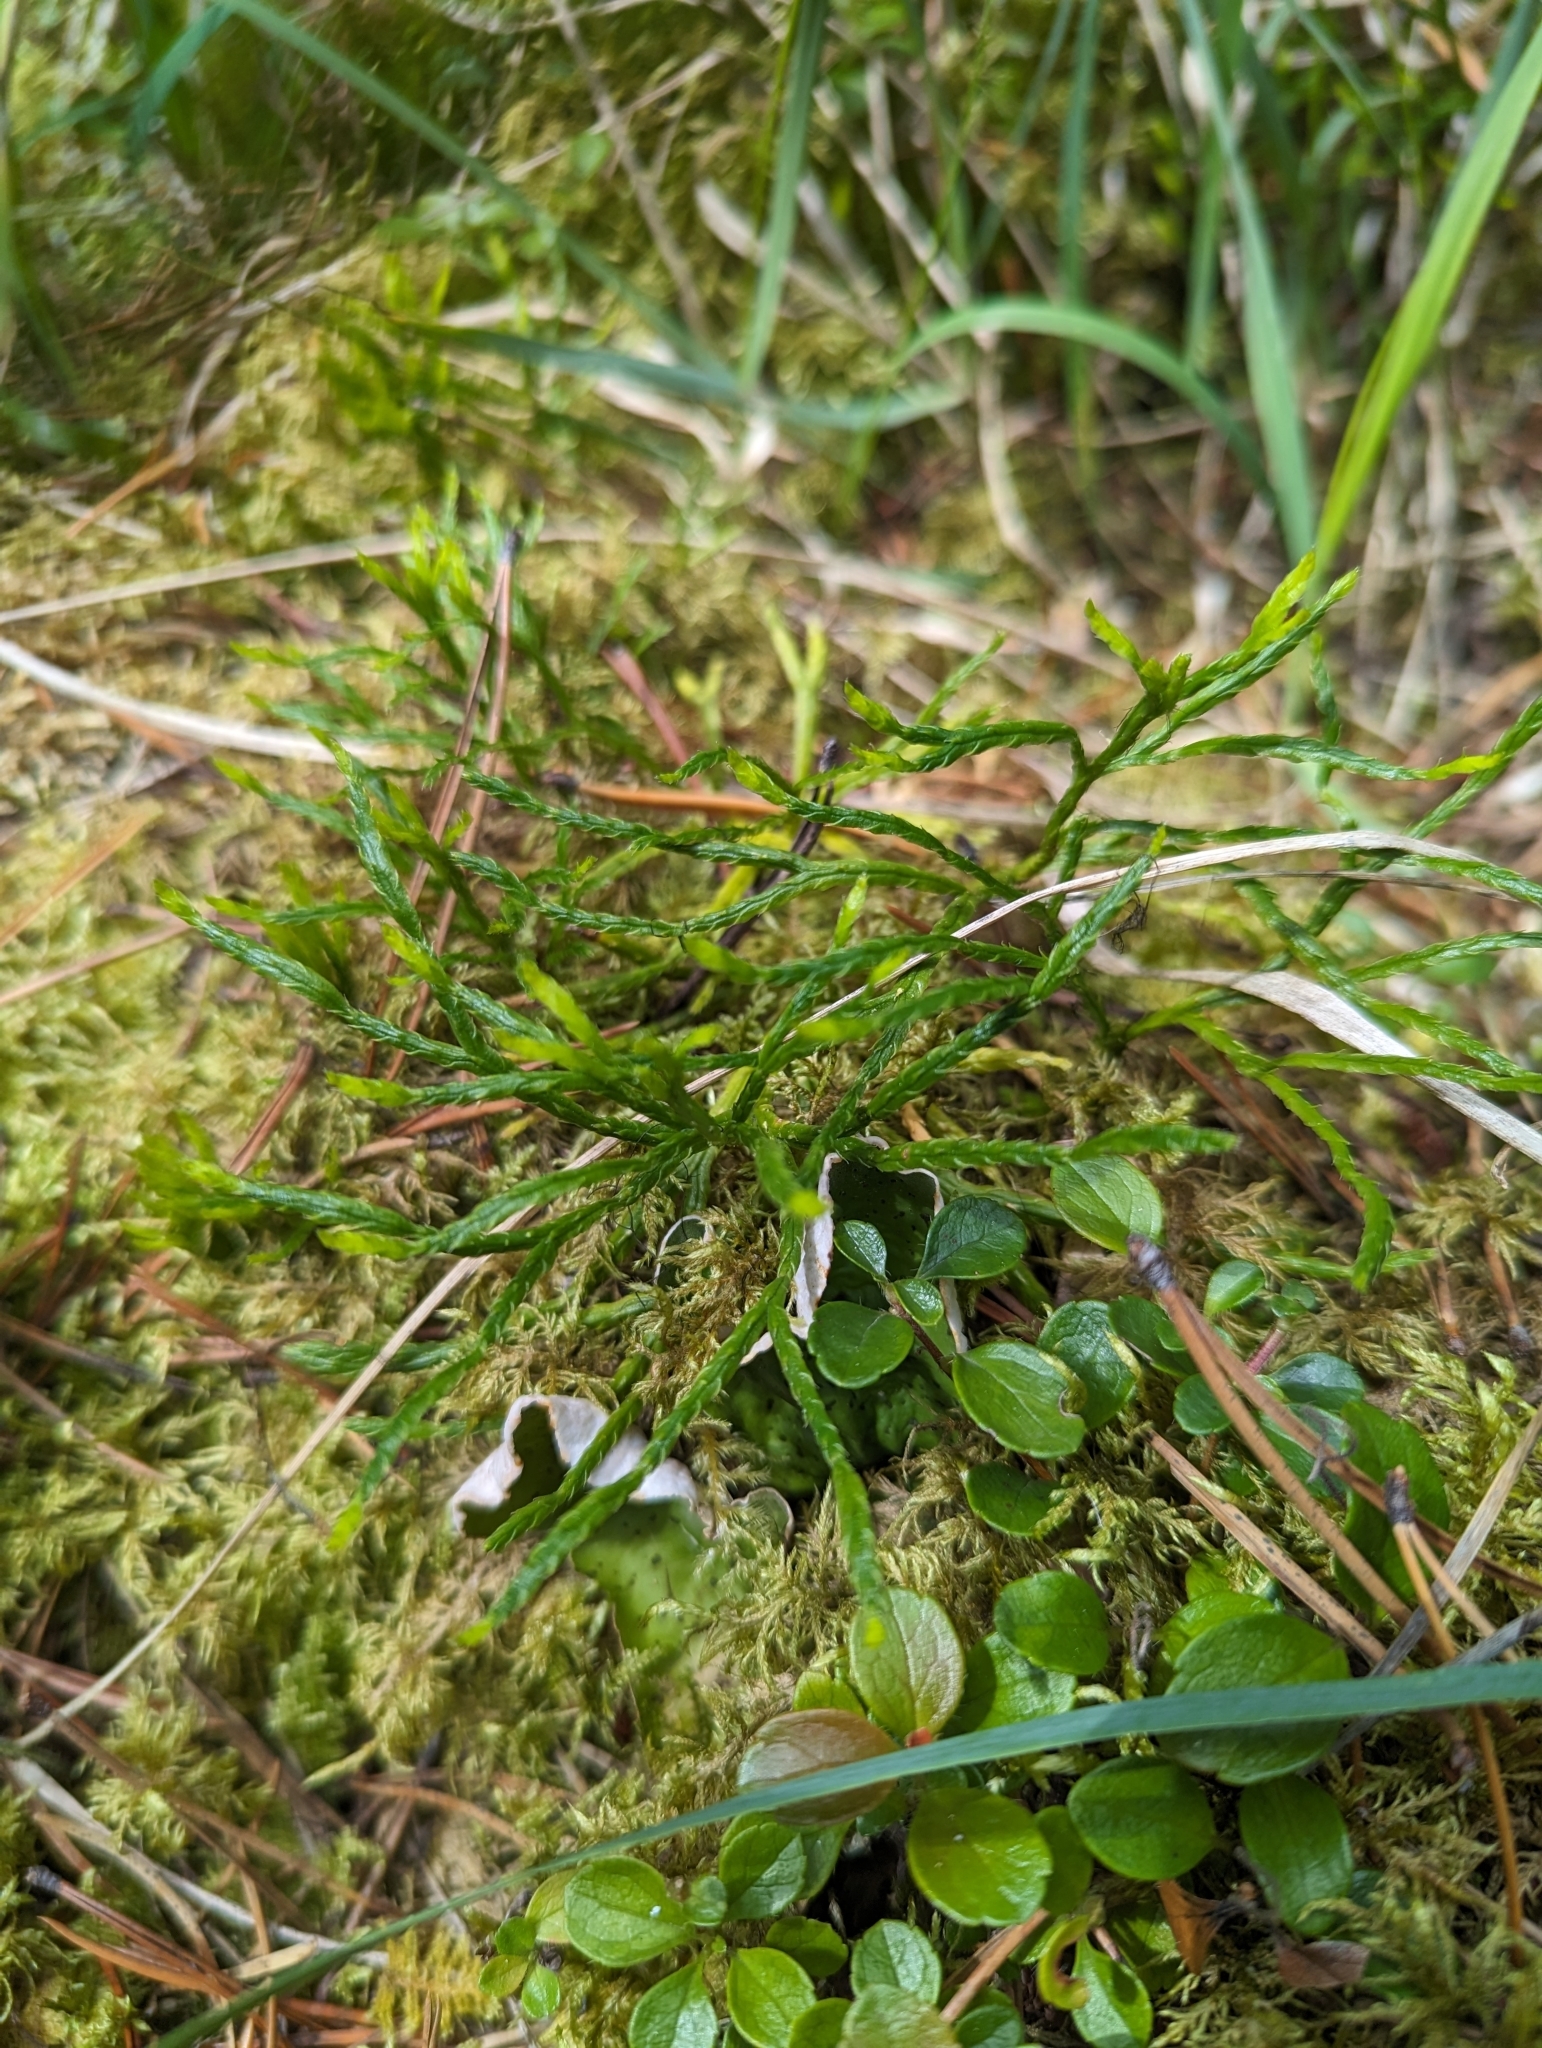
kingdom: Plantae
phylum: Tracheophyta
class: Lycopodiopsida
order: Lycopodiales
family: Lycopodiaceae
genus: Diphasiastrum
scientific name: Diphasiastrum complanatum
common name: Northern running-pine
